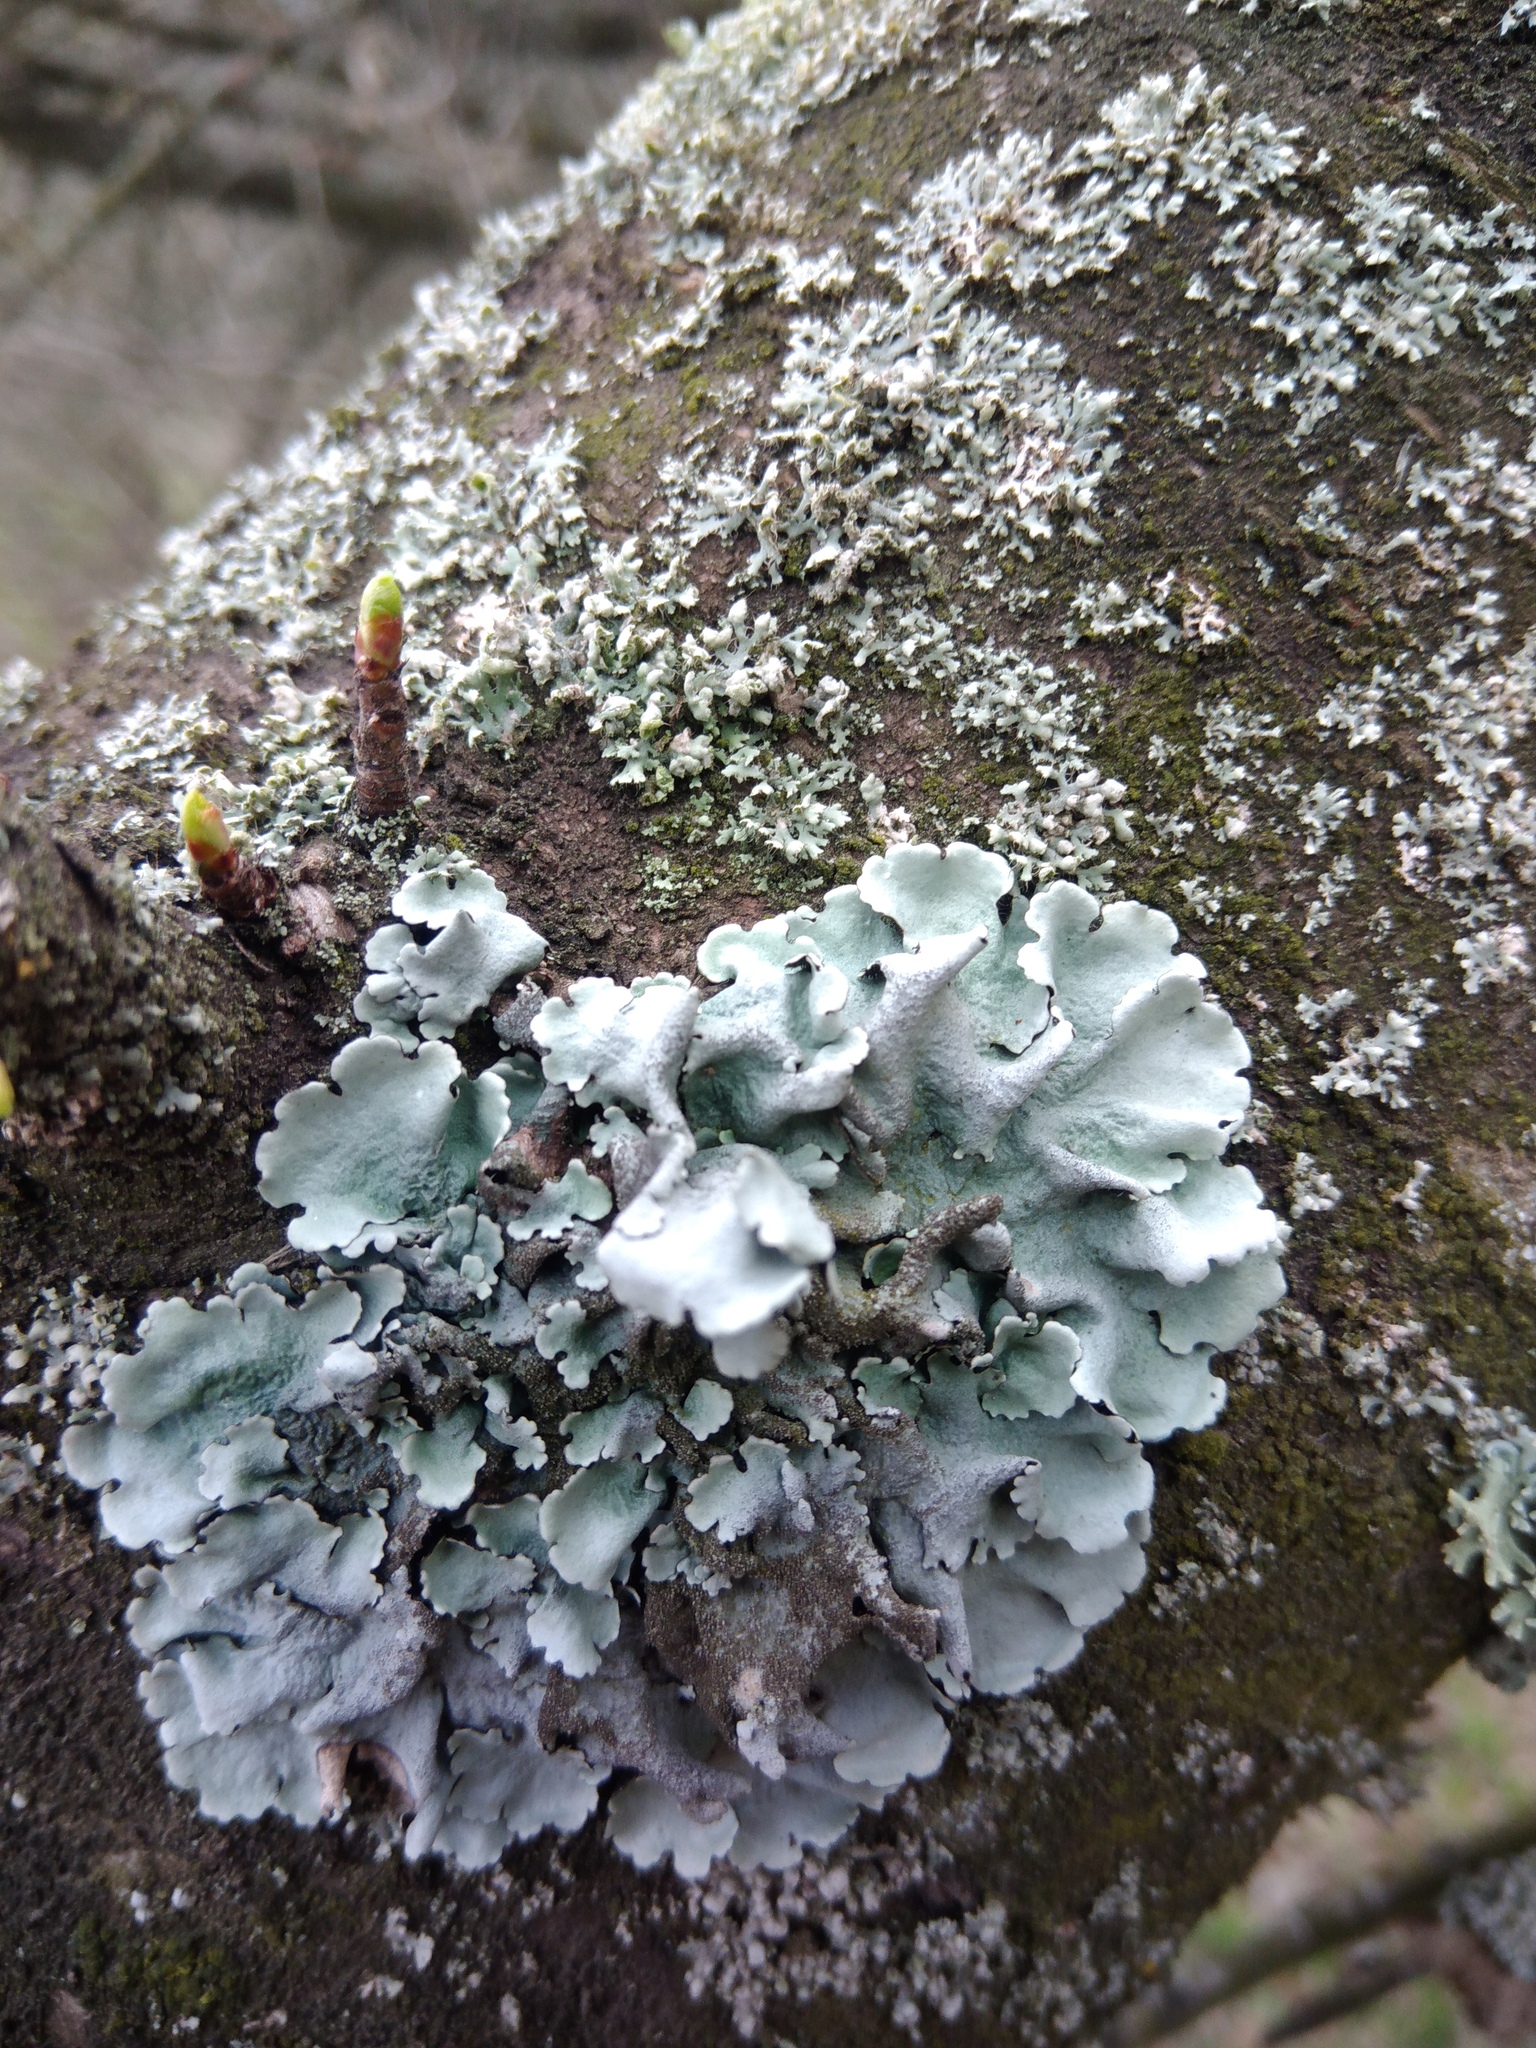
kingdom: Fungi
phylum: Ascomycota
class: Lecanoromycetes
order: Lecanorales
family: Parmeliaceae
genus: Parmelina
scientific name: Parmelina tiliacea
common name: Linden shield lichen
